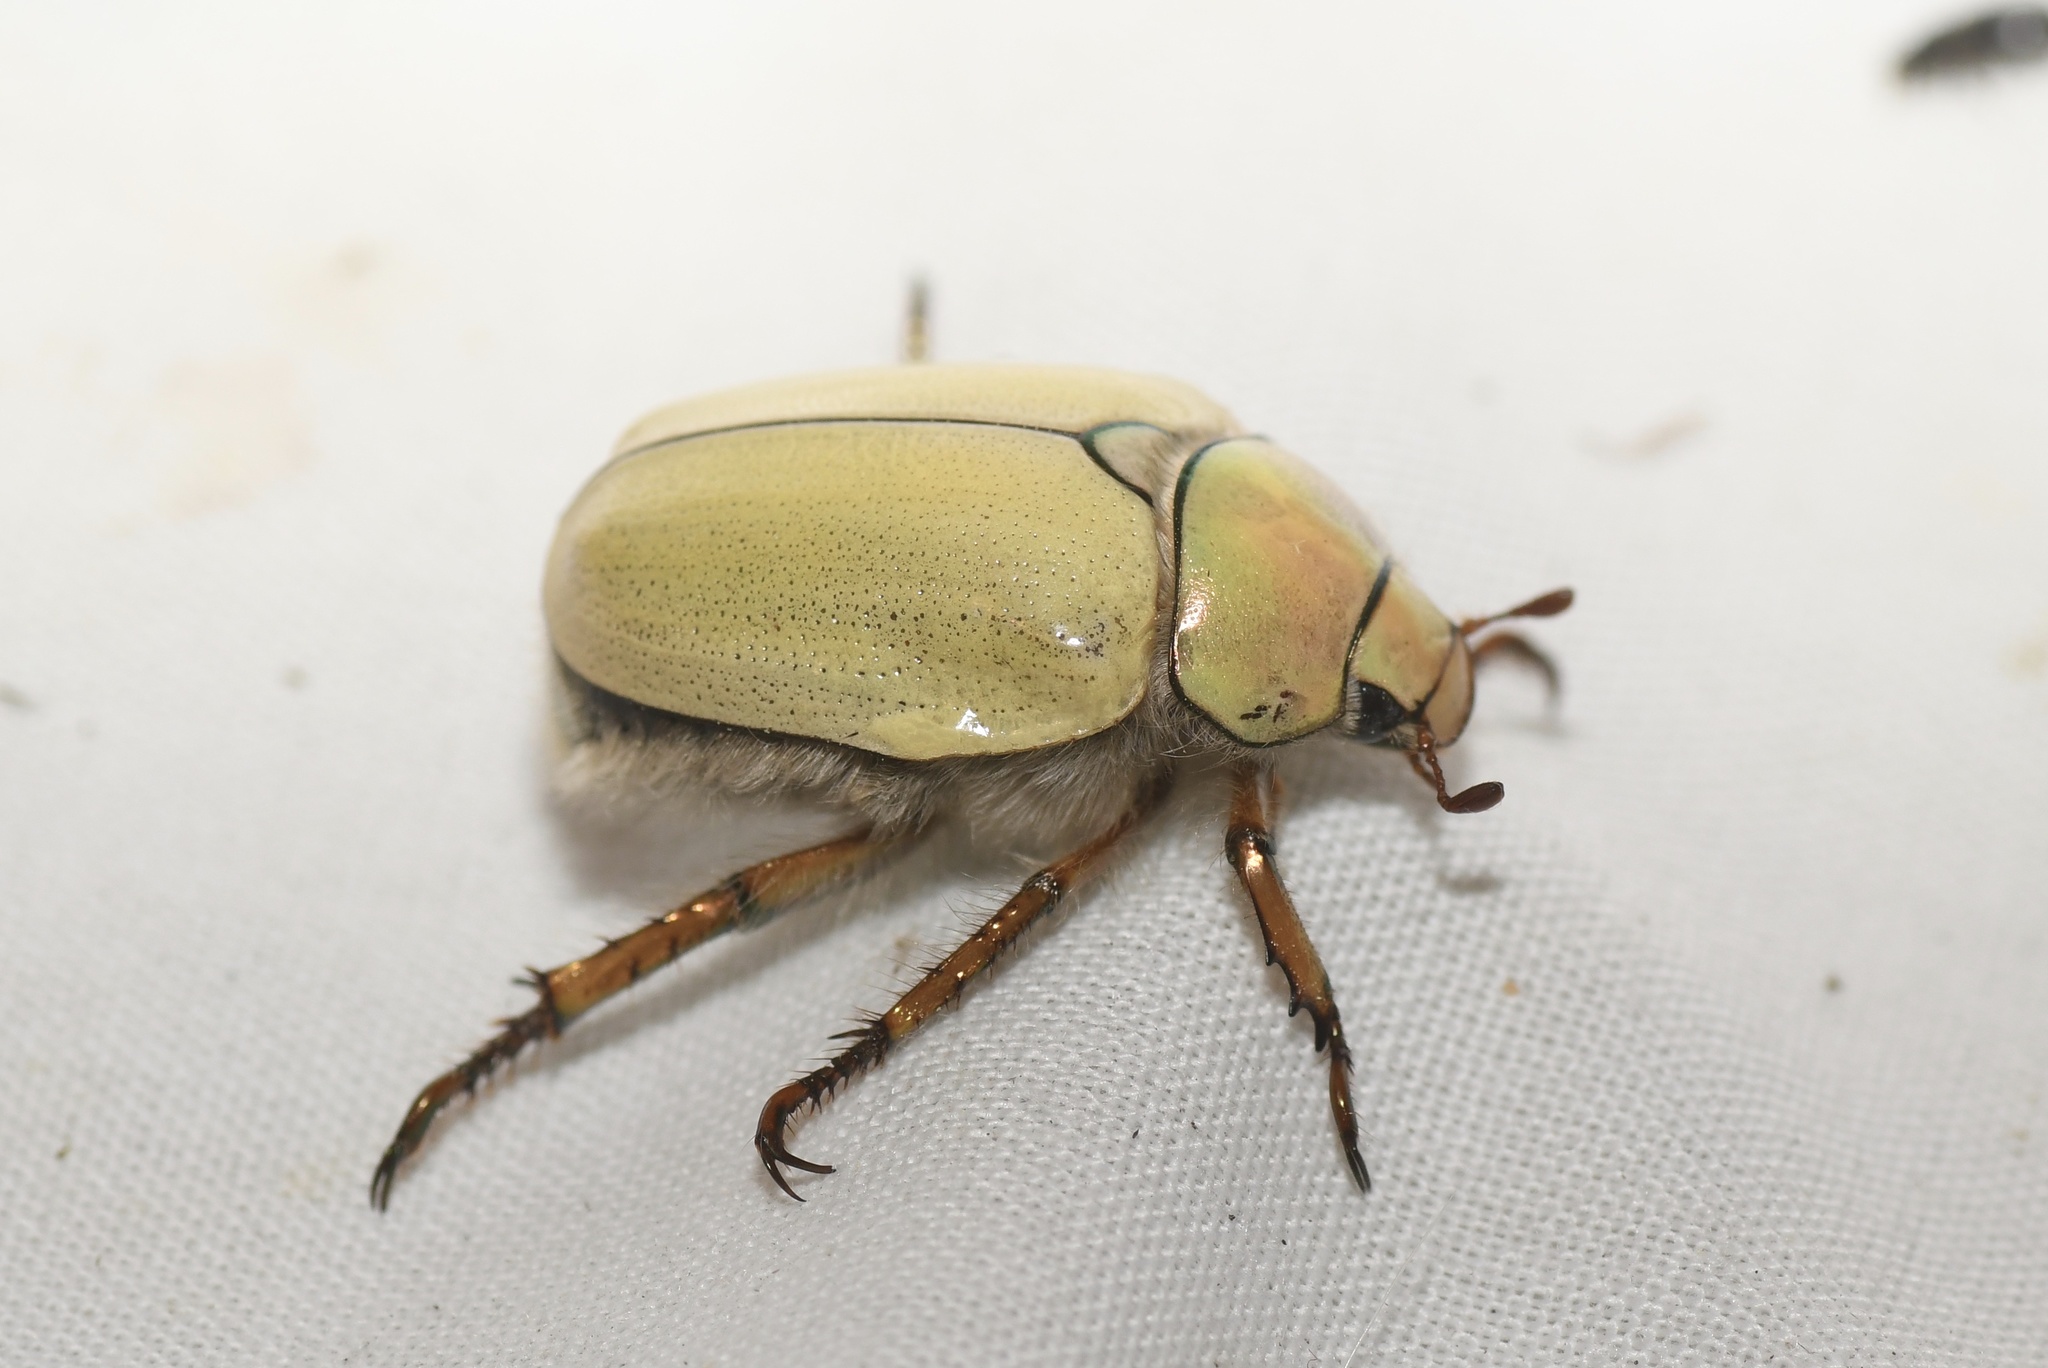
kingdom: Animalia
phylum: Arthropoda
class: Insecta
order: Coleoptera
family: Scarabaeidae
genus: Cotalpa
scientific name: Cotalpa lanigera
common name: Goldsmith beetle
